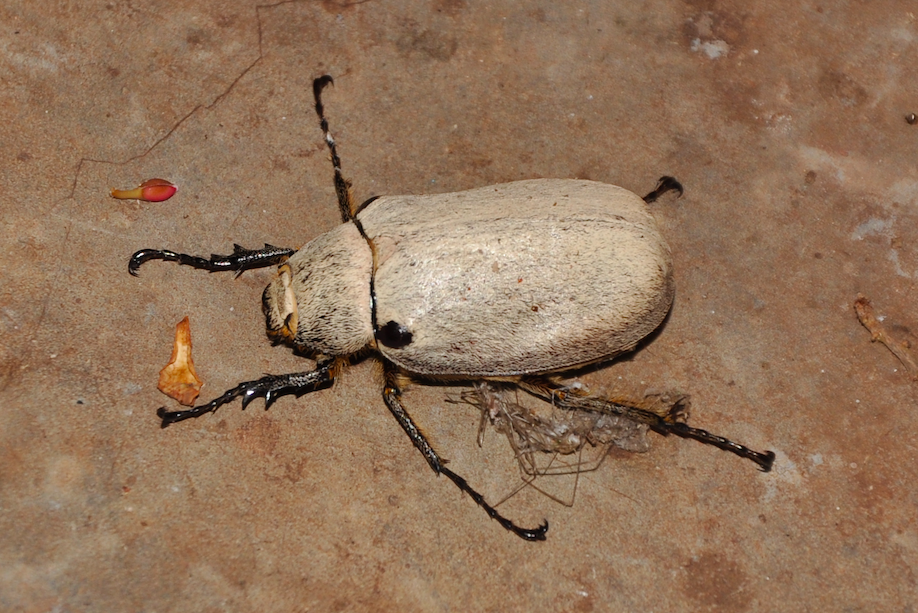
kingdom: Animalia
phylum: Arthropoda
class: Insecta
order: Coleoptera
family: Scarabaeidae
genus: Tricholepis
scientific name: Tricholepis albosquamosa
